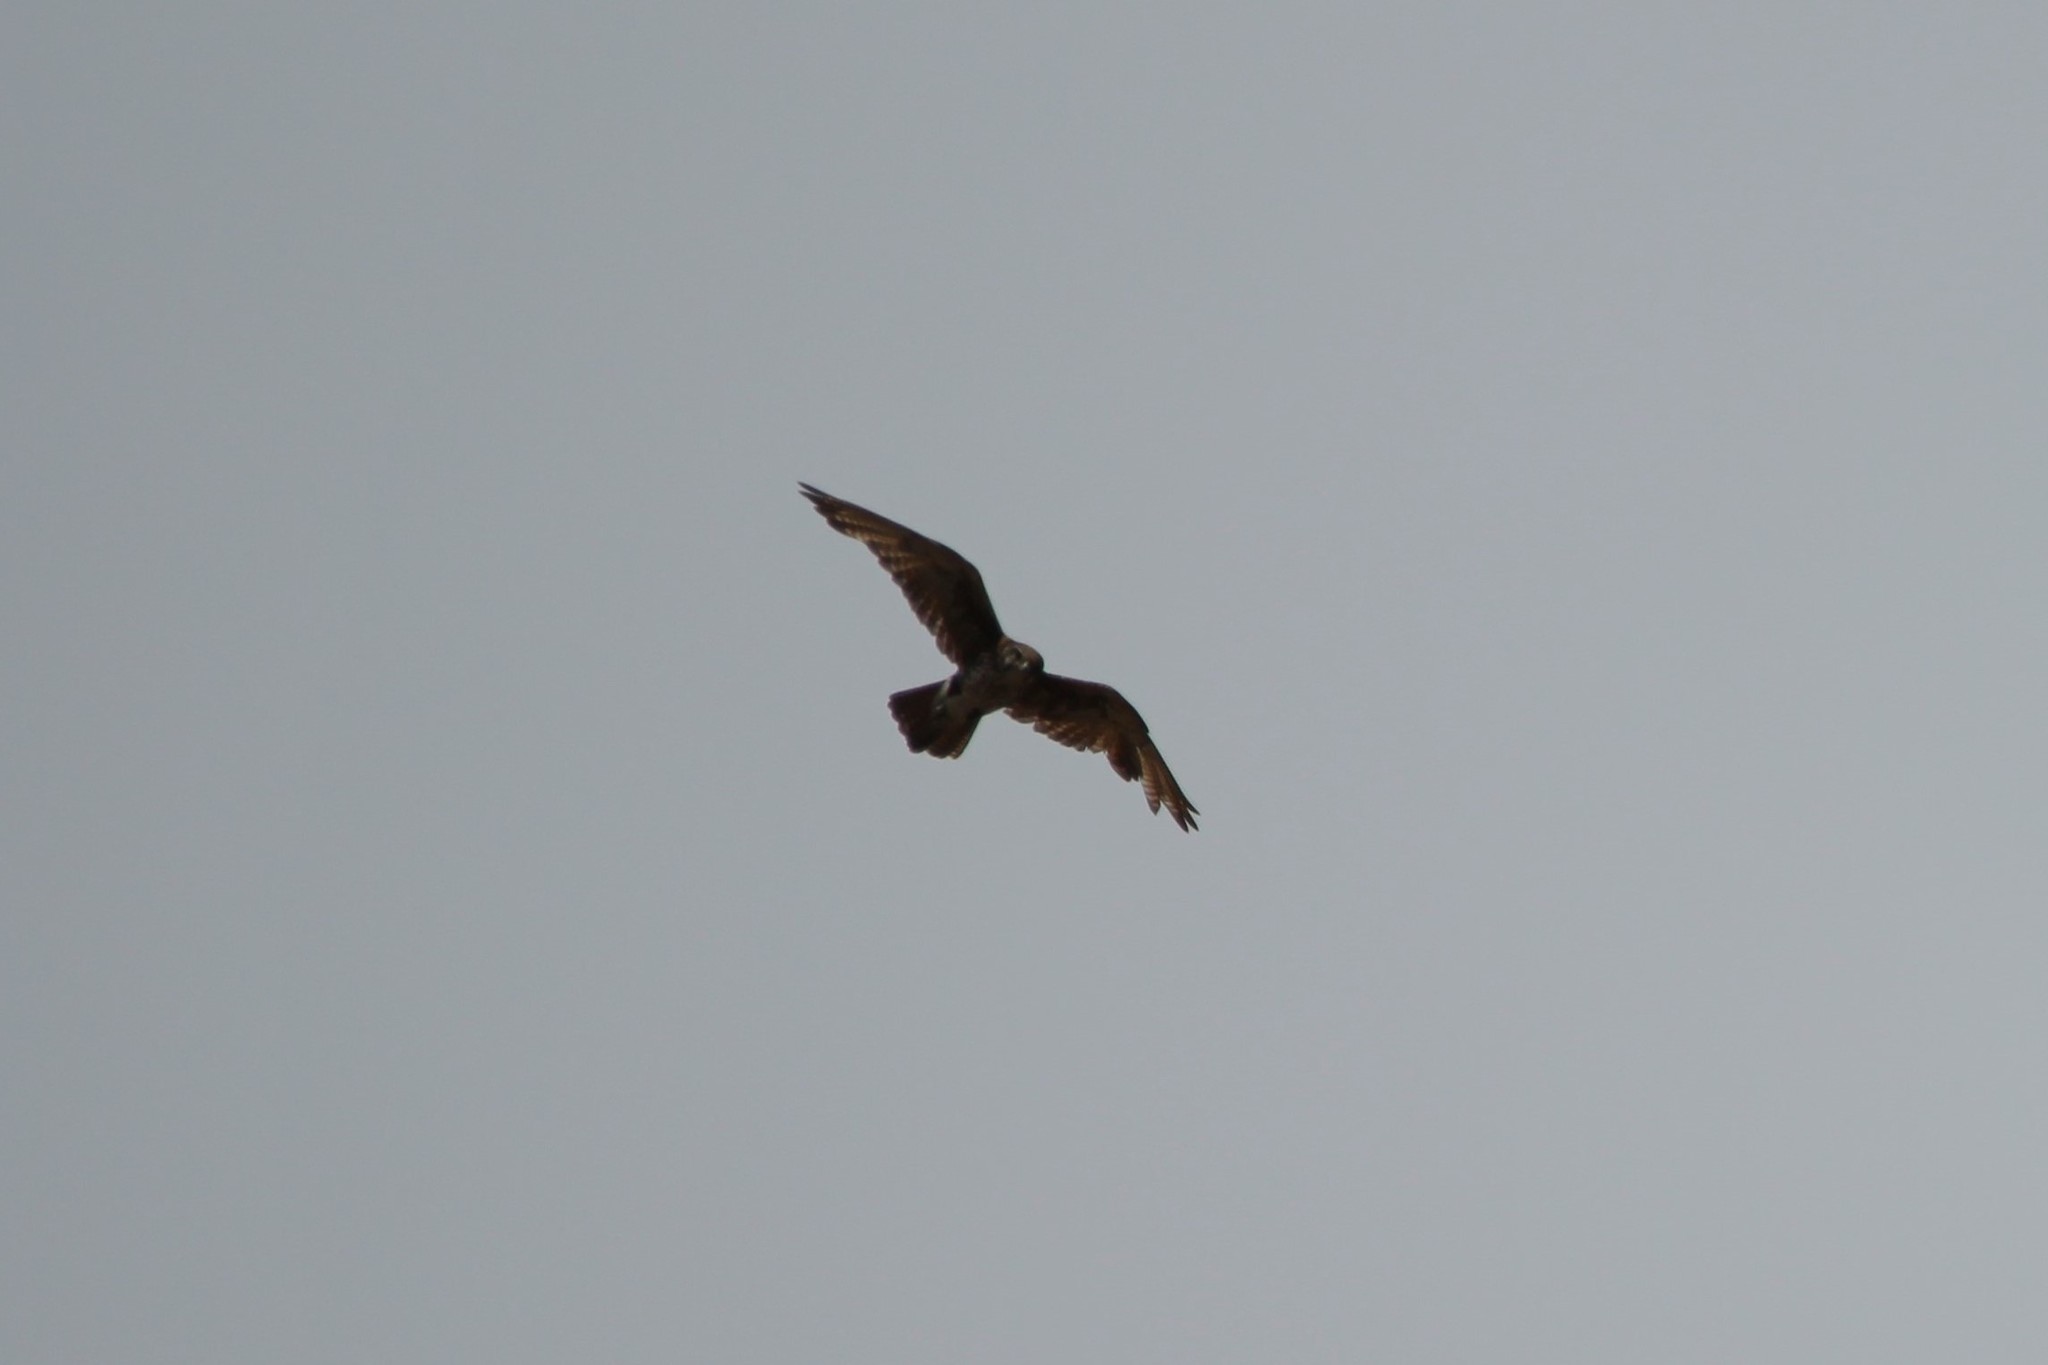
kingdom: Animalia
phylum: Chordata
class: Aves
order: Falconiformes
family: Falconidae
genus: Falco
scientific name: Falco berigora
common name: Brown falcon
